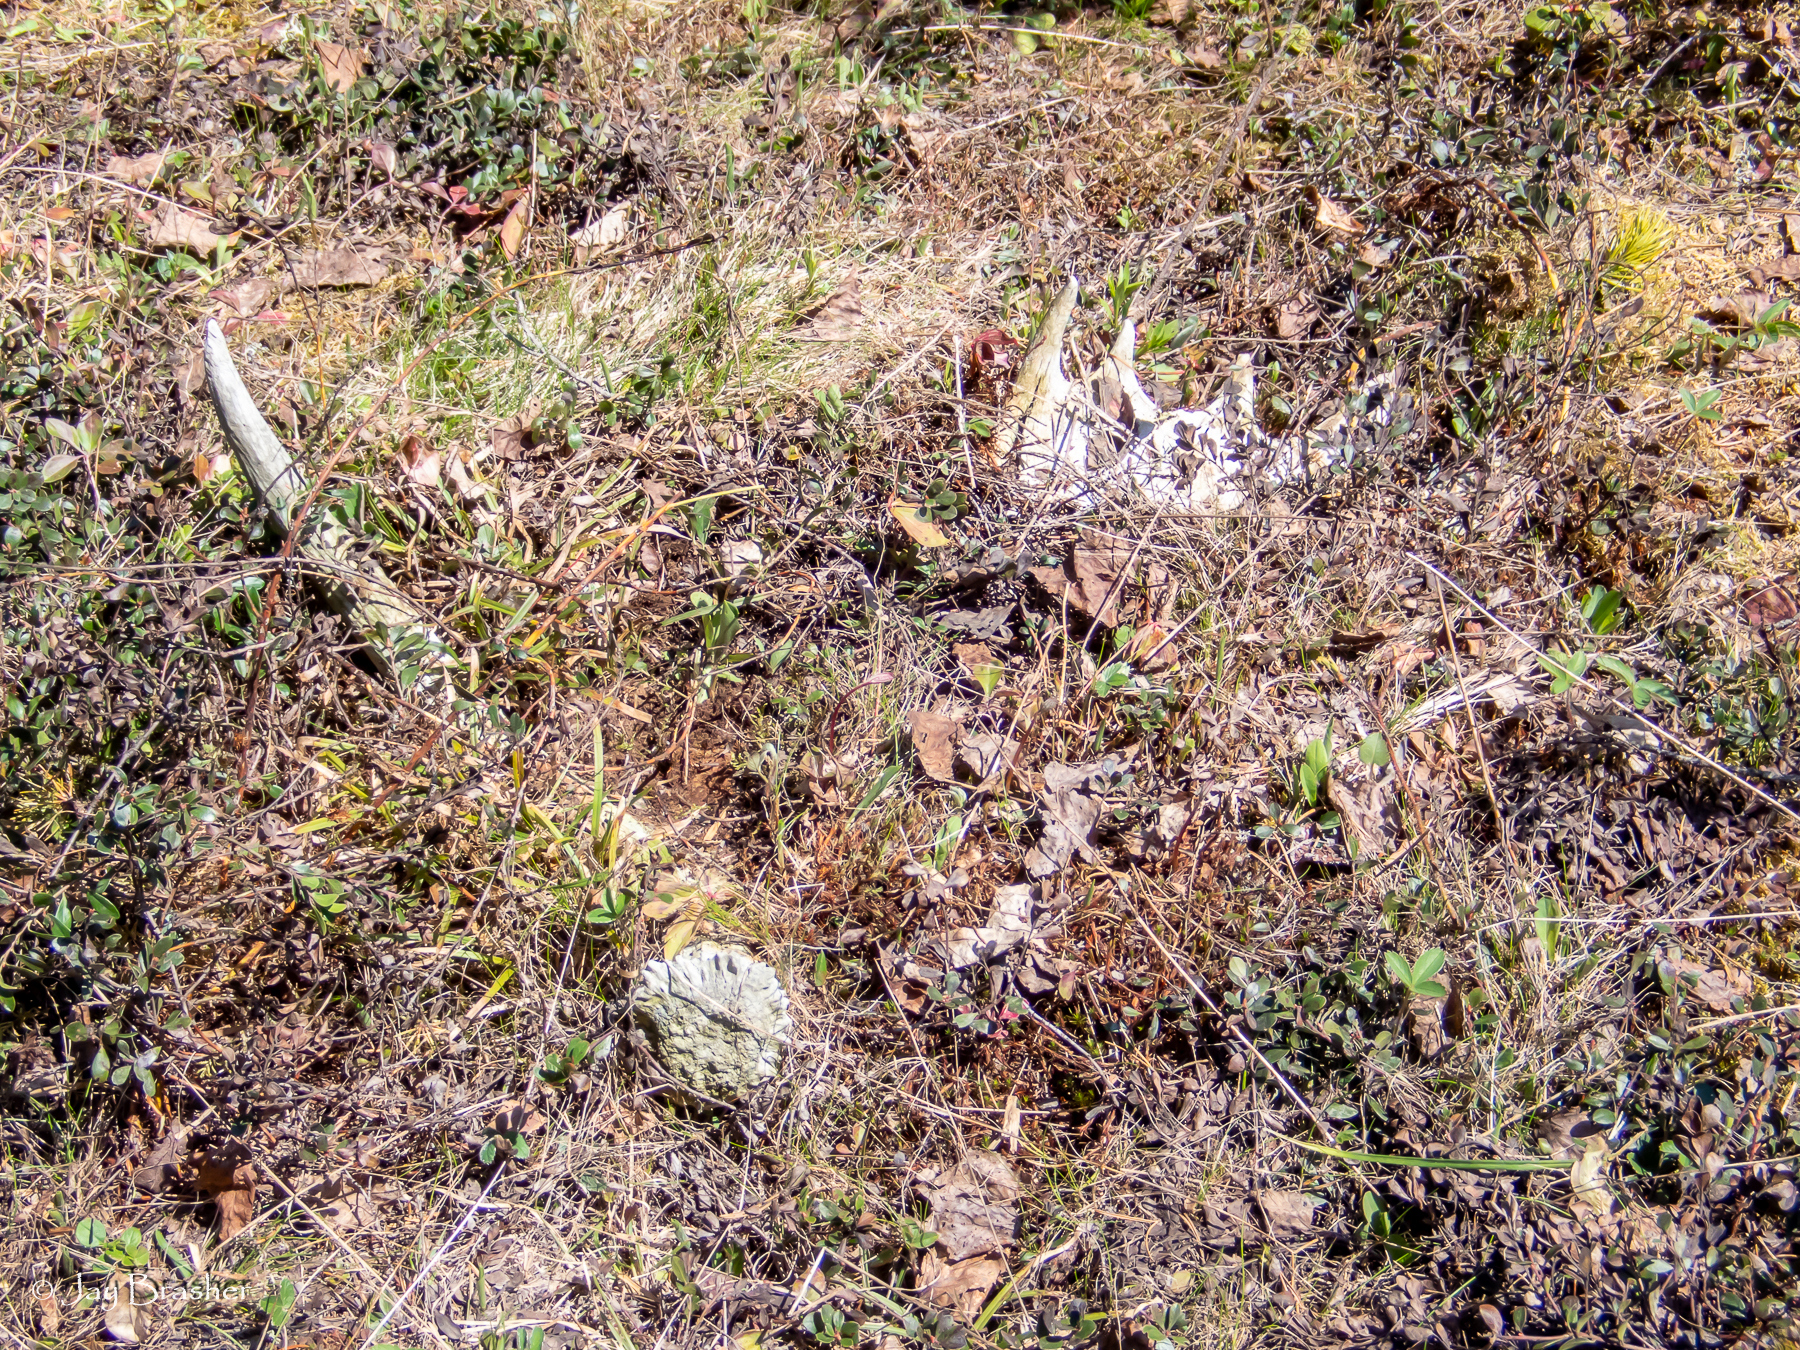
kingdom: Animalia
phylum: Chordata
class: Mammalia
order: Artiodactyla
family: Cervidae
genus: Alces
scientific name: Alces americanus
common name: Moose
